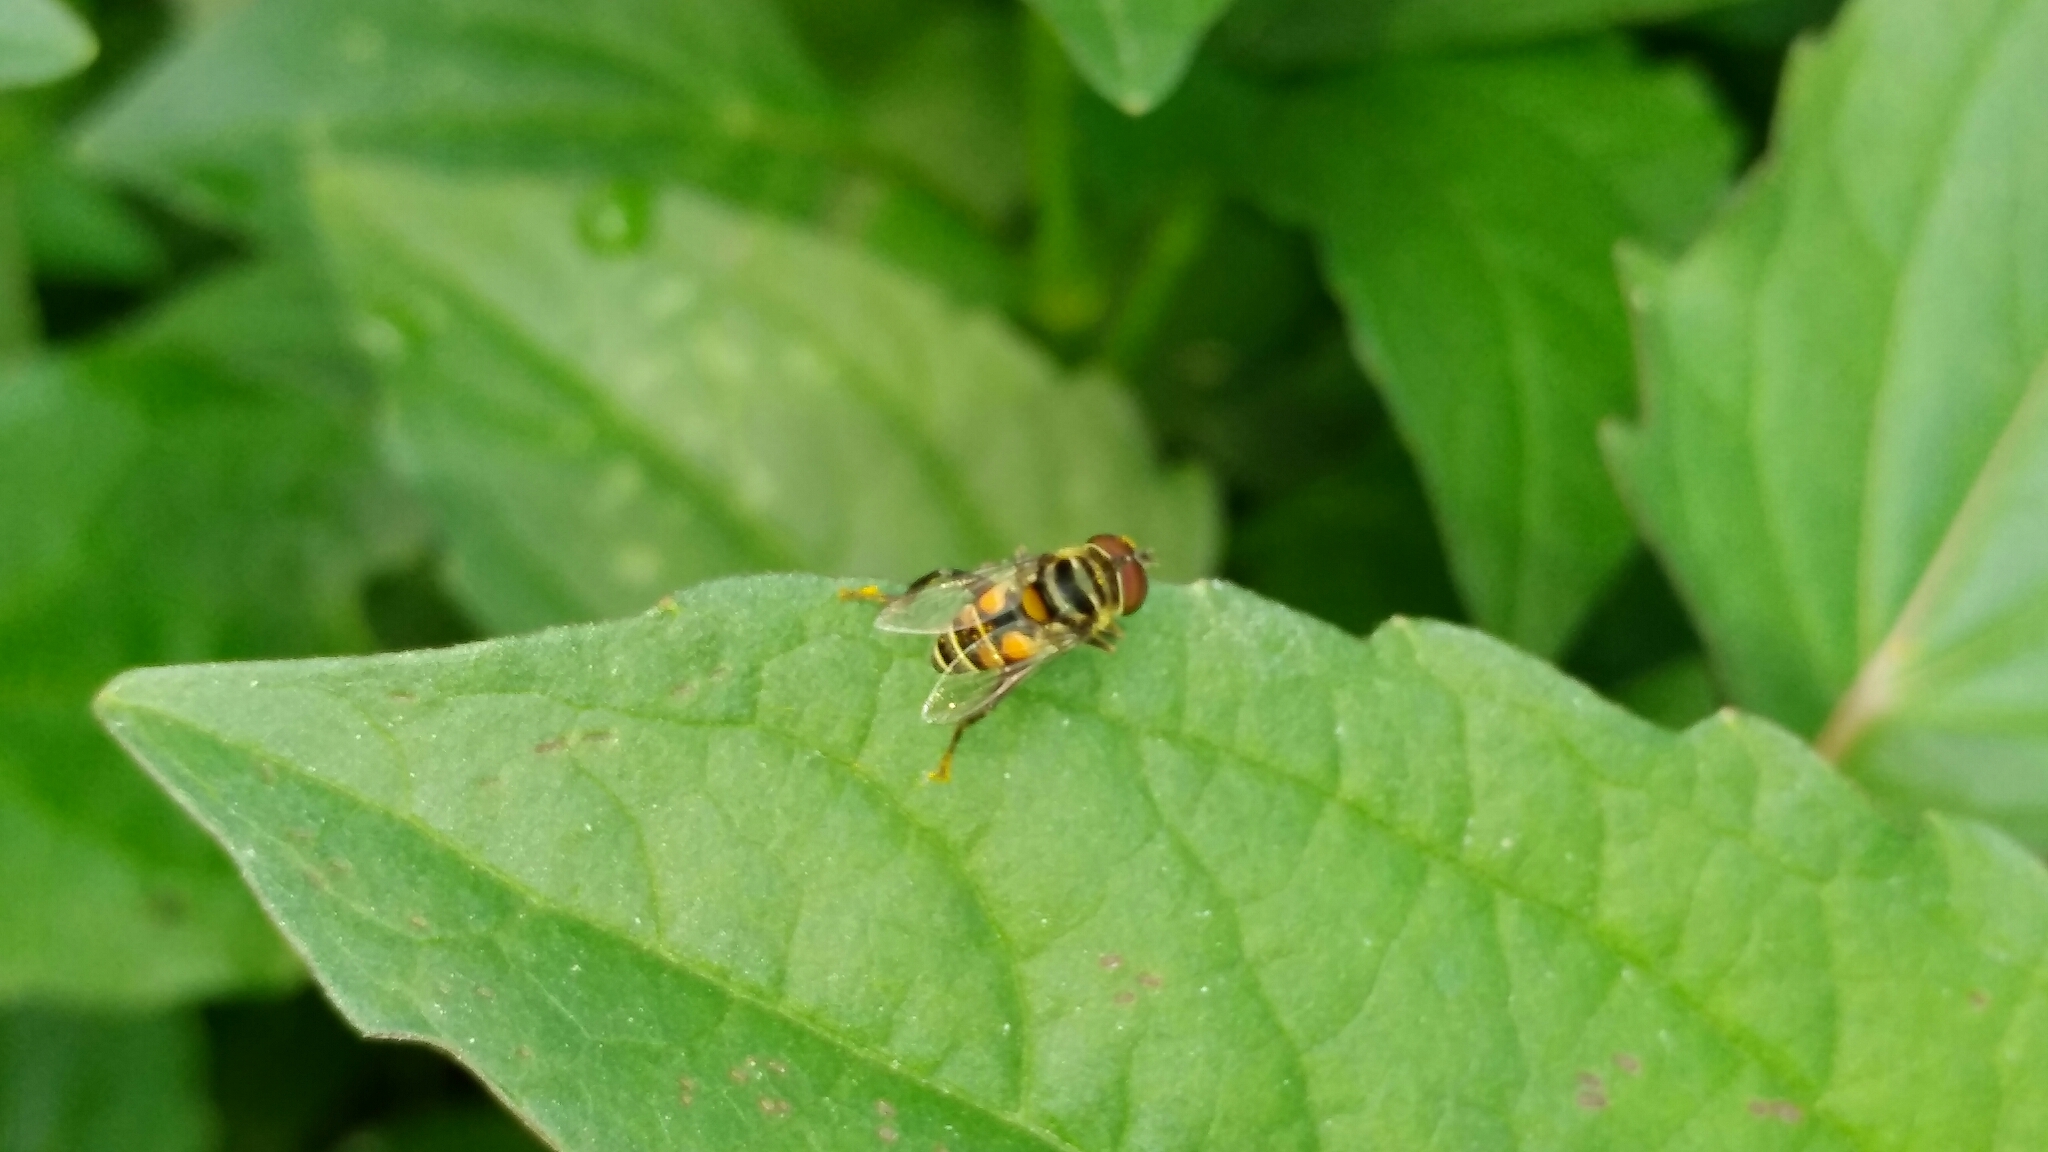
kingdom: Animalia
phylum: Arthropoda
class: Insecta
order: Diptera
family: Syrphidae
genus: Palpada
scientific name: Palpada vinetorum
